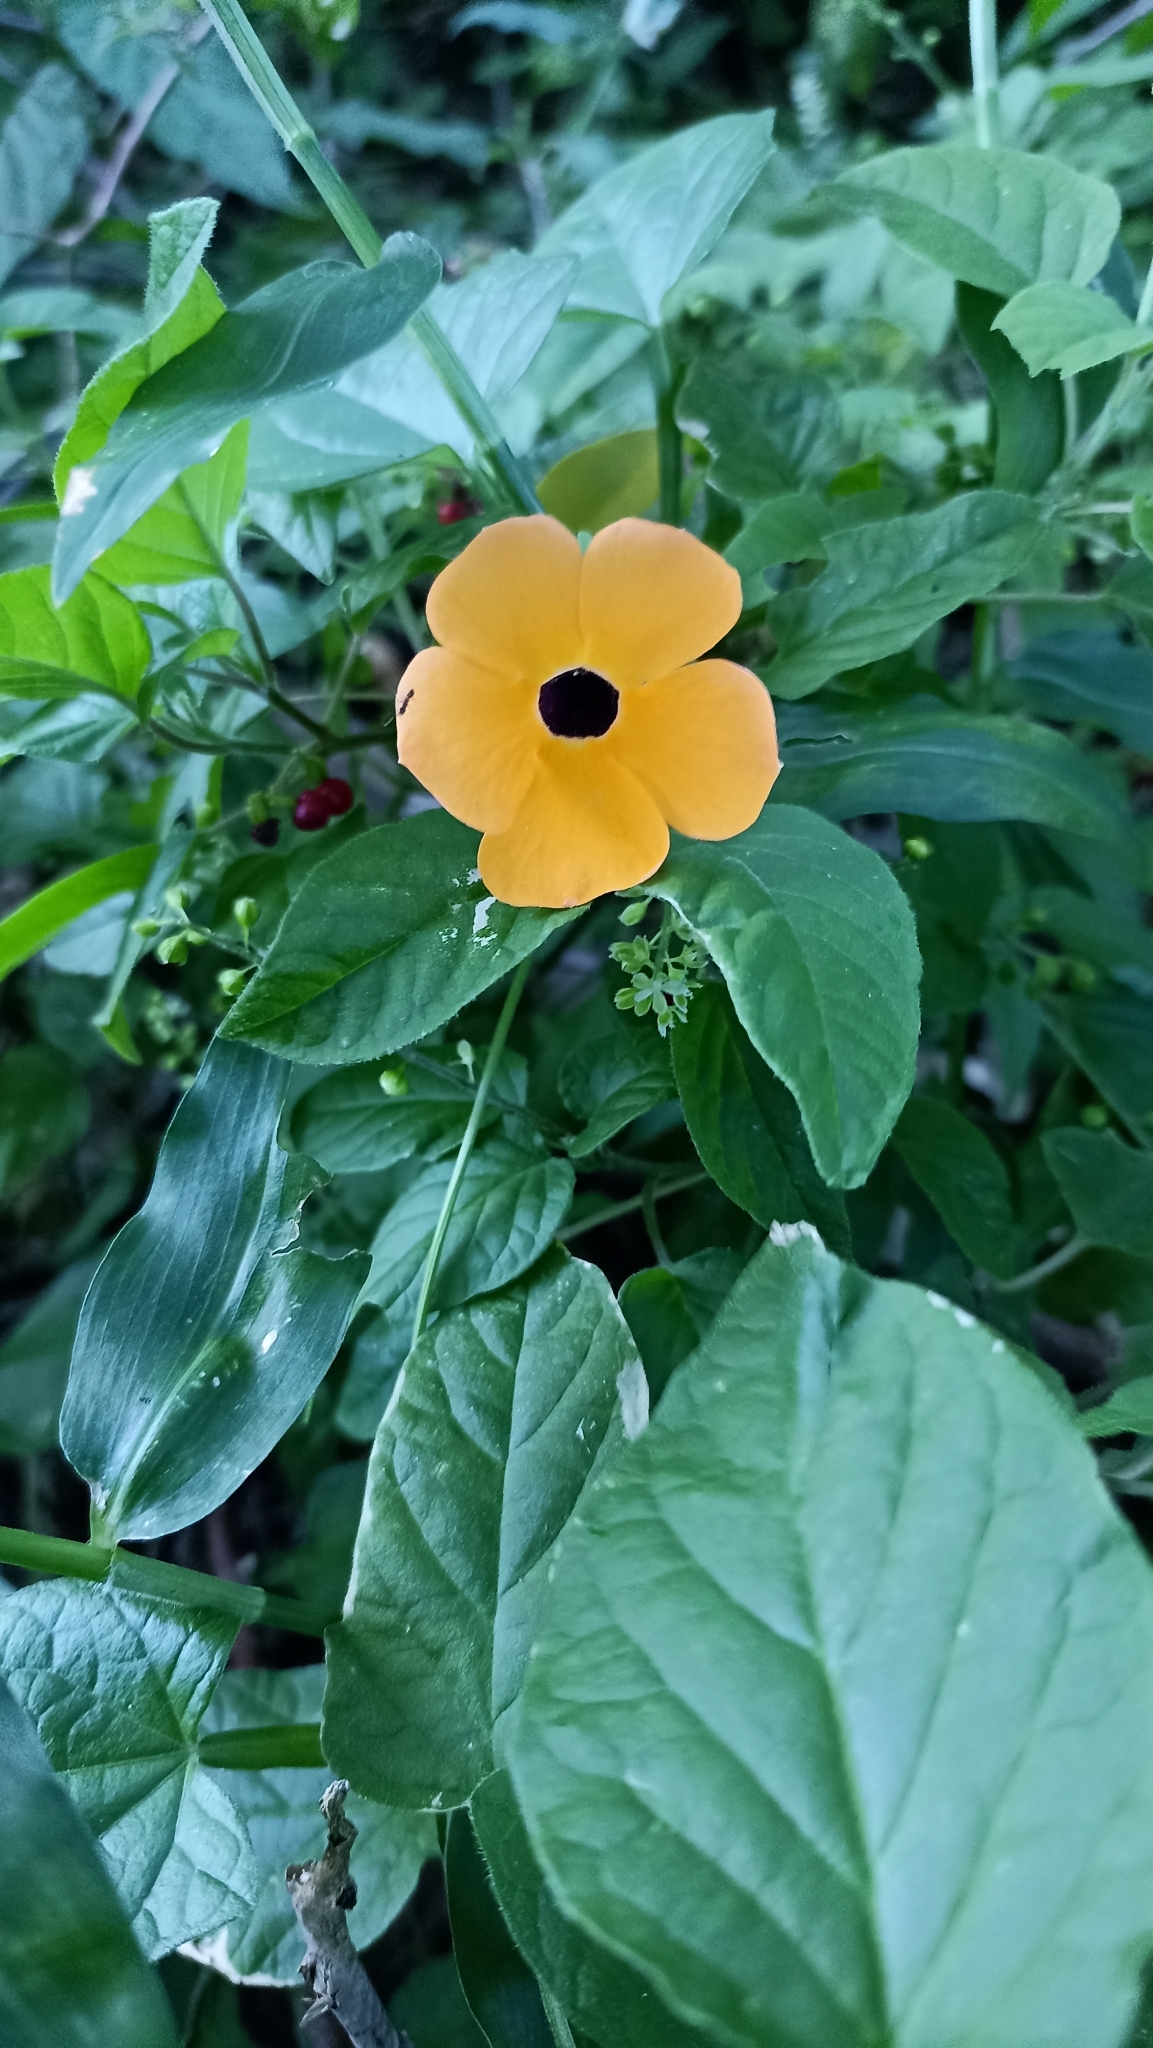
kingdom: Plantae
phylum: Tracheophyta
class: Magnoliopsida
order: Lamiales
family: Acanthaceae
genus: Thunbergia
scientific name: Thunbergia alata
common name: Blackeyed susan vine
